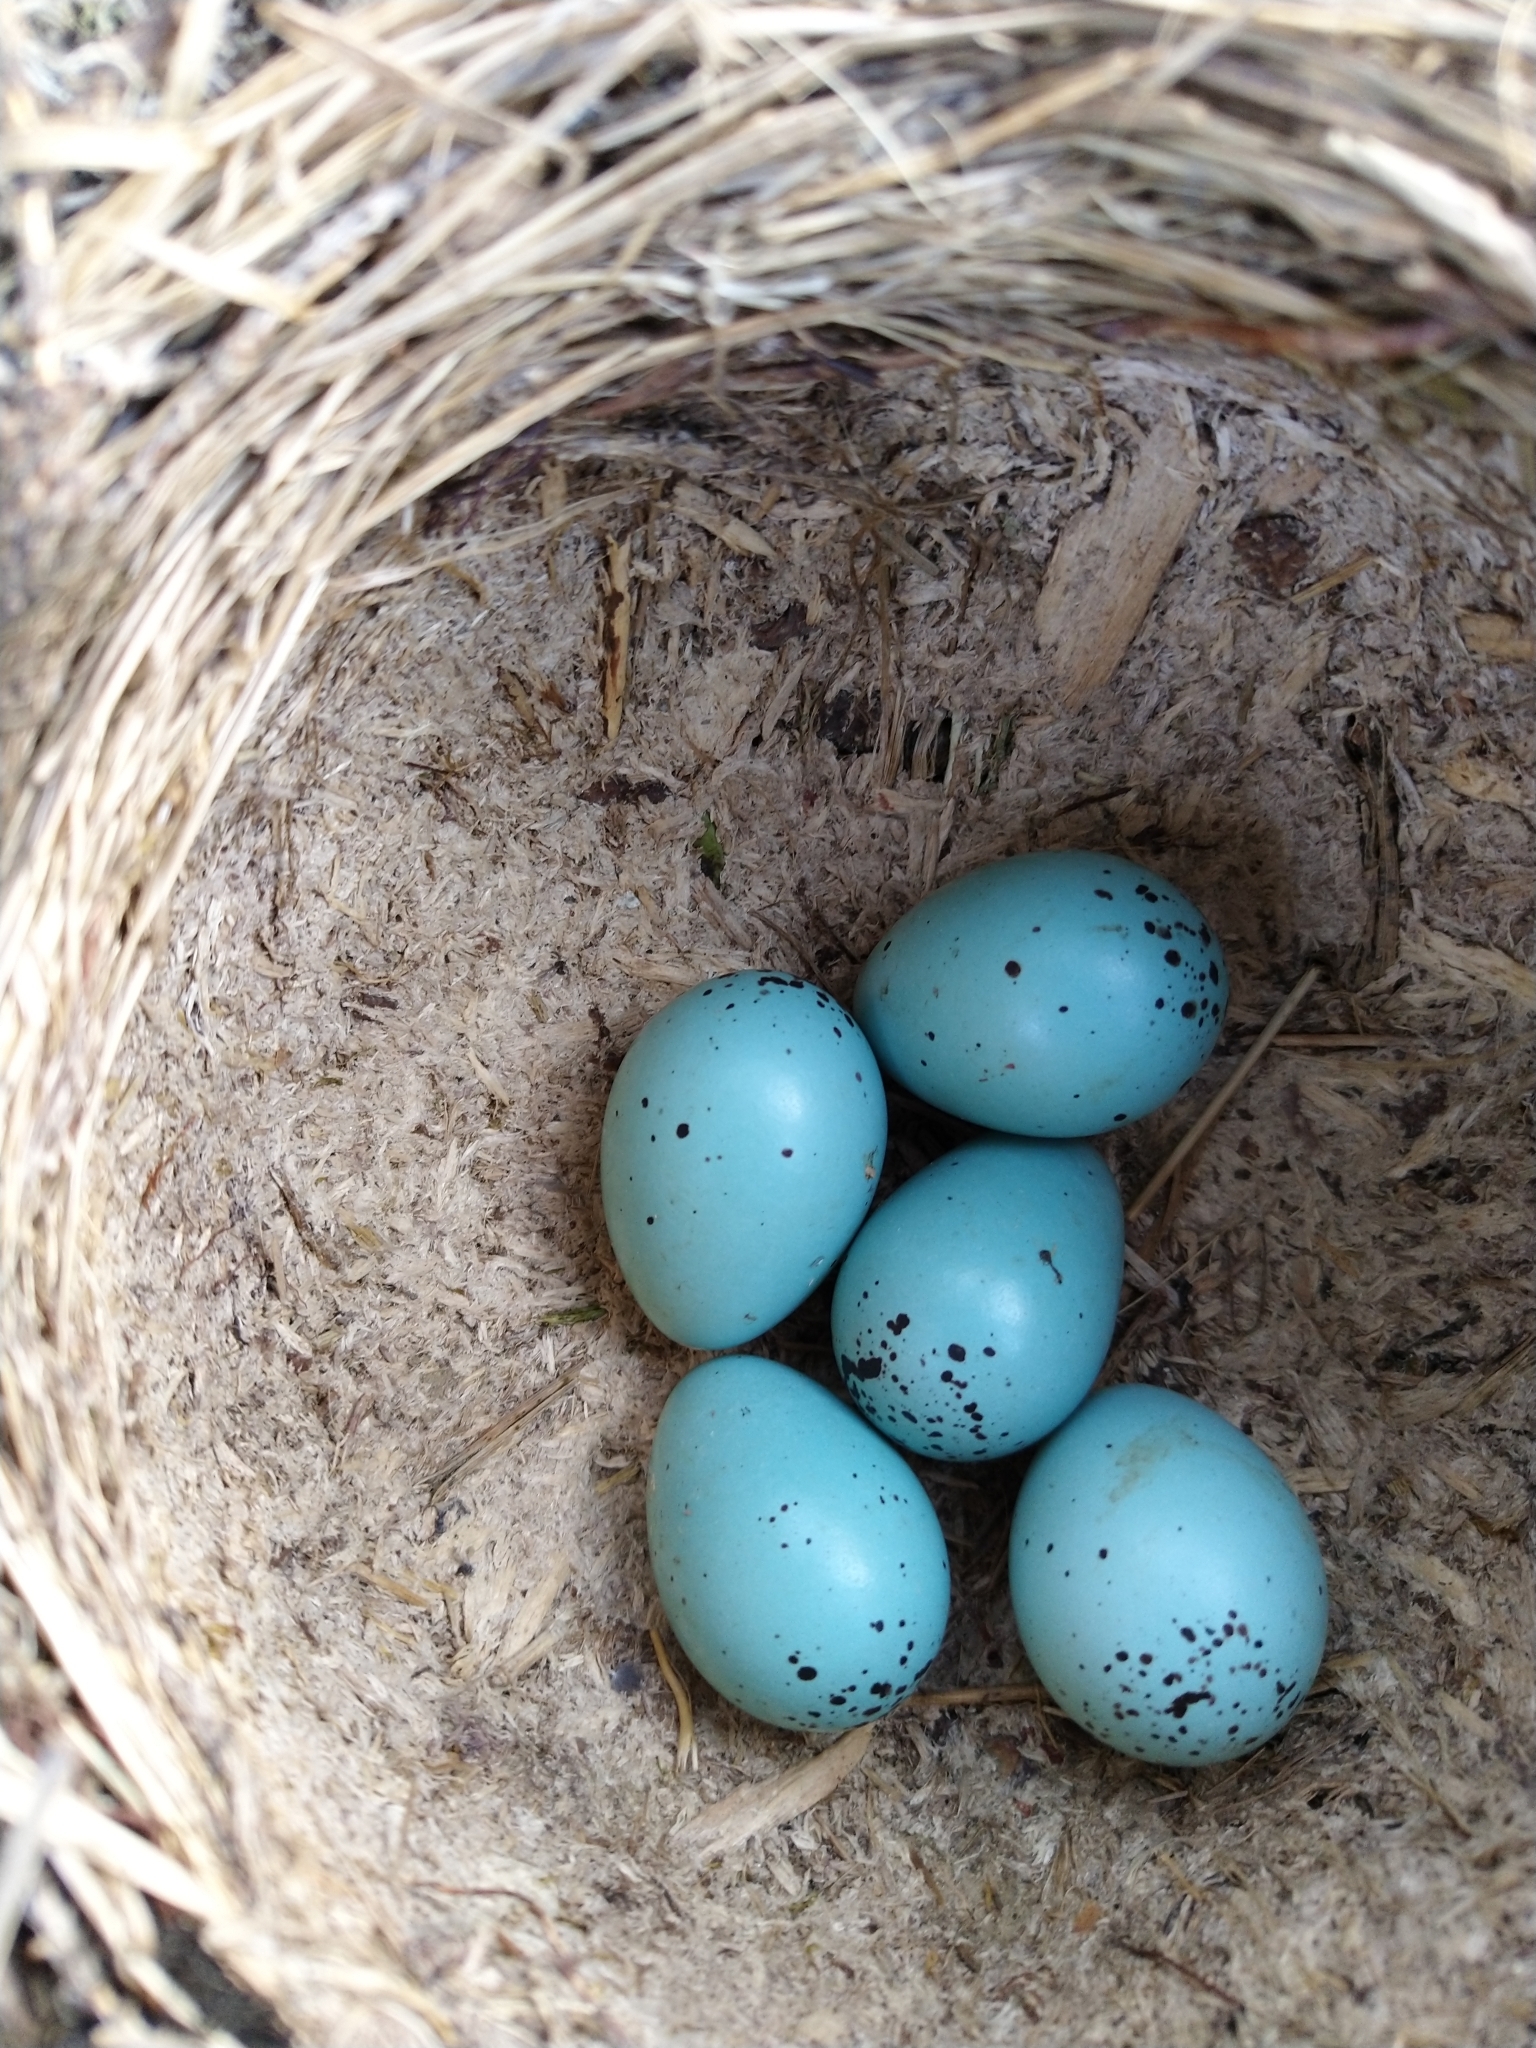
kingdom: Animalia
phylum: Chordata
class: Aves
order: Passeriformes
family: Turdidae
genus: Turdus
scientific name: Turdus philomelos
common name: Song thrush
